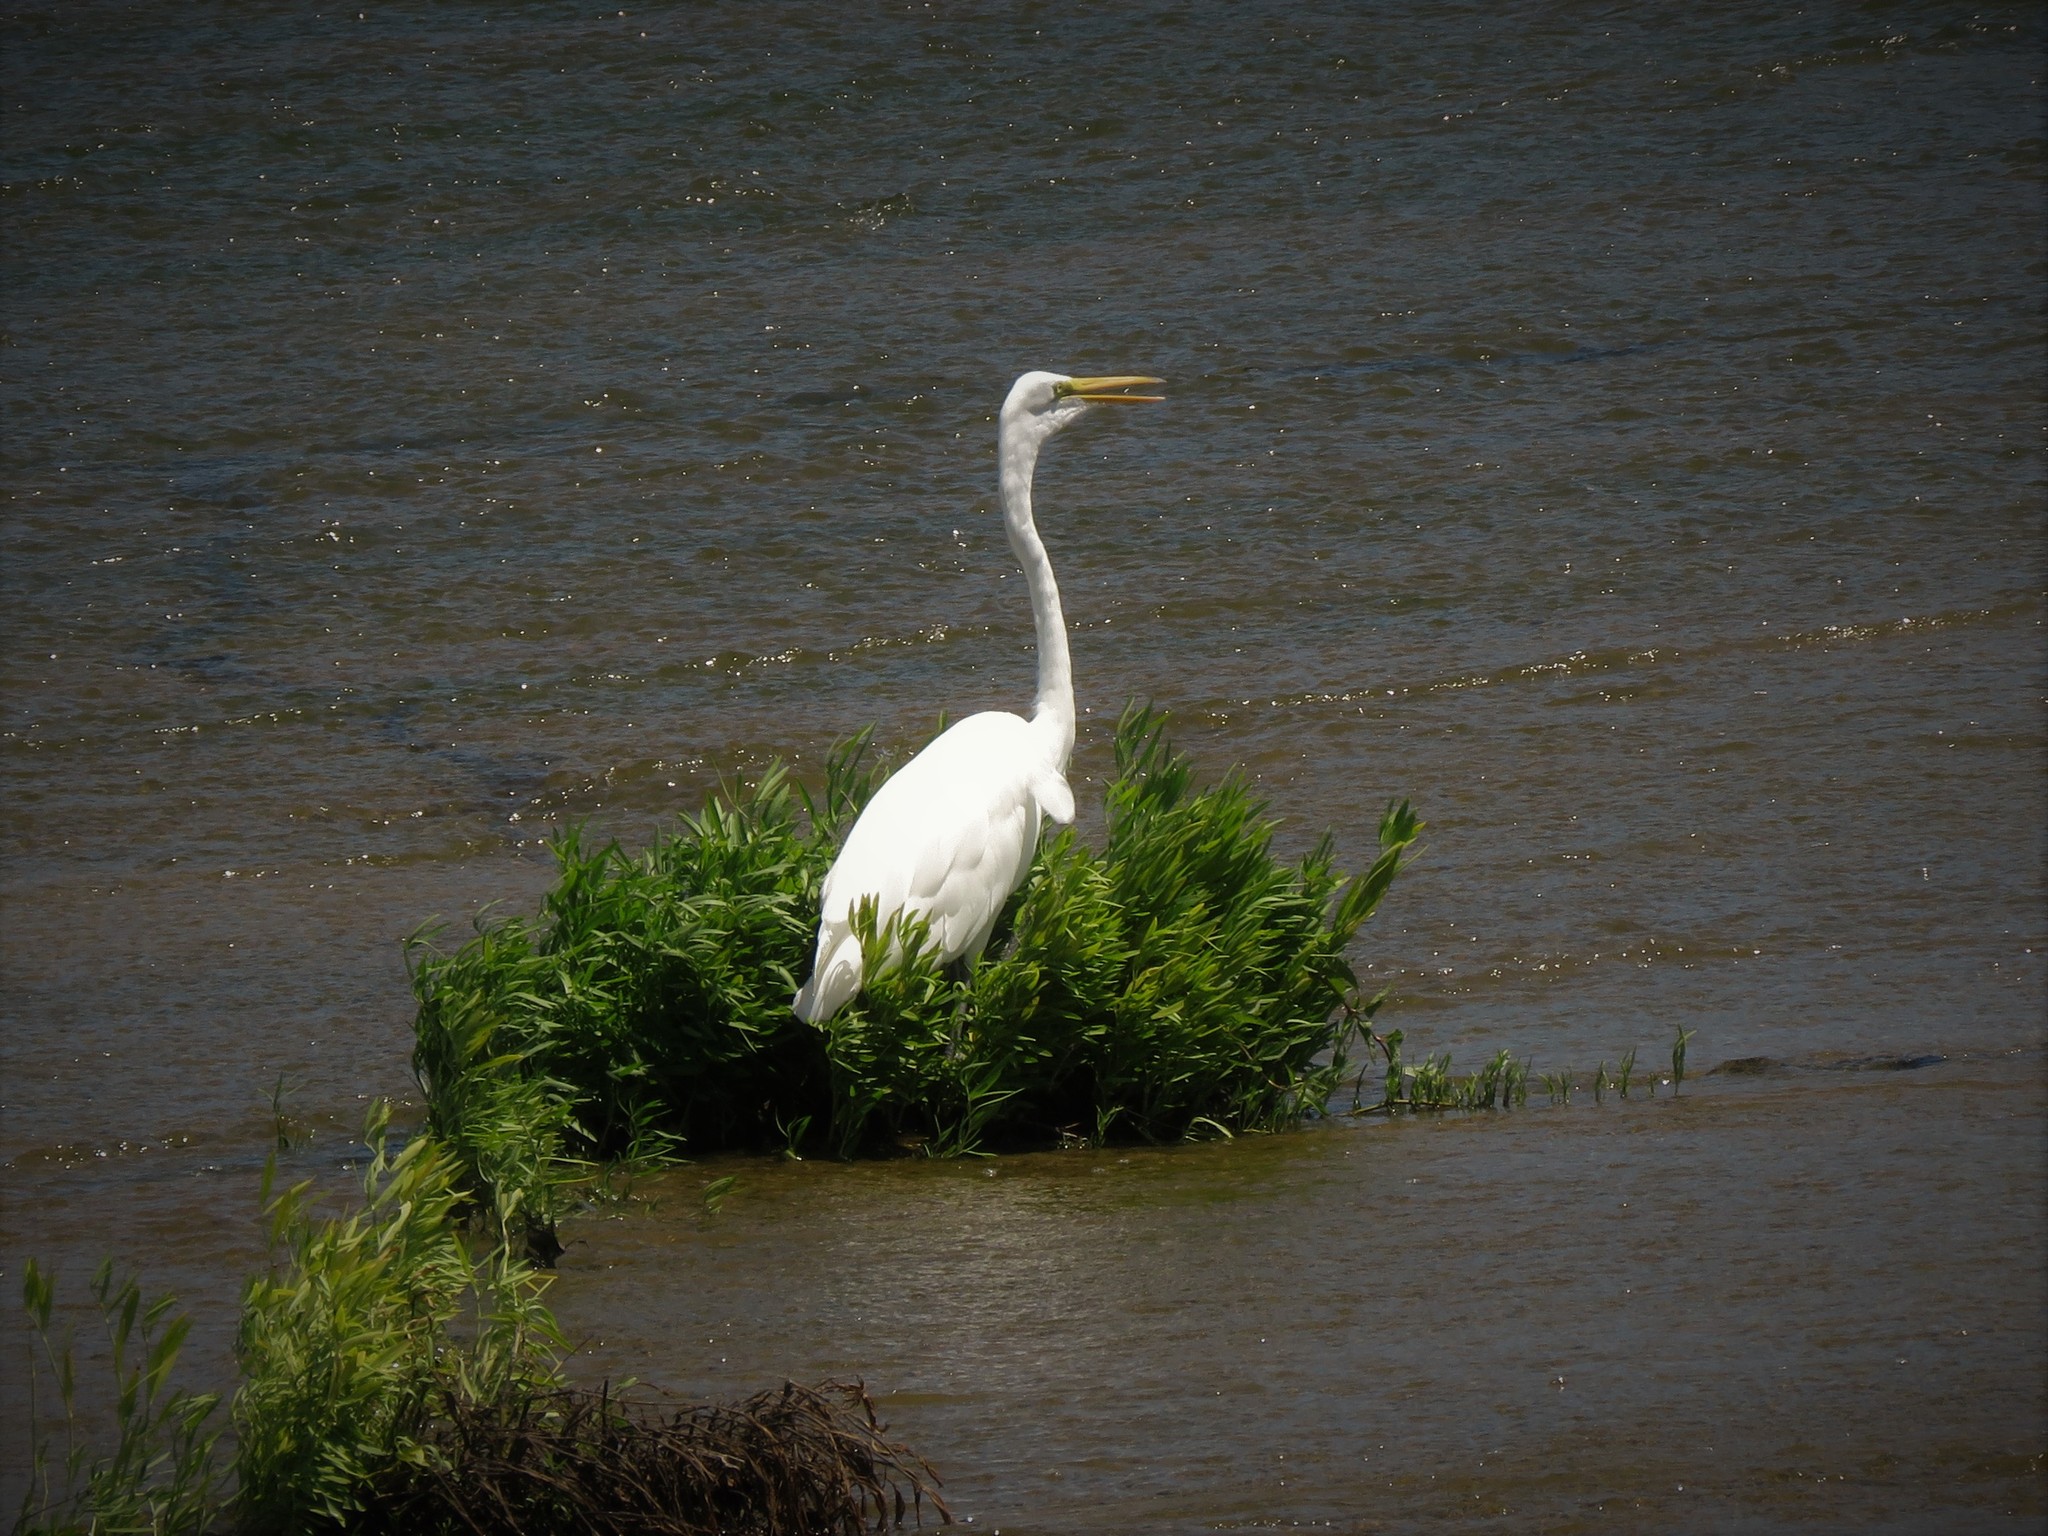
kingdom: Animalia
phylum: Chordata
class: Aves
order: Pelecaniformes
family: Ardeidae
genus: Ardea
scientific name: Ardea alba
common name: Great egret
